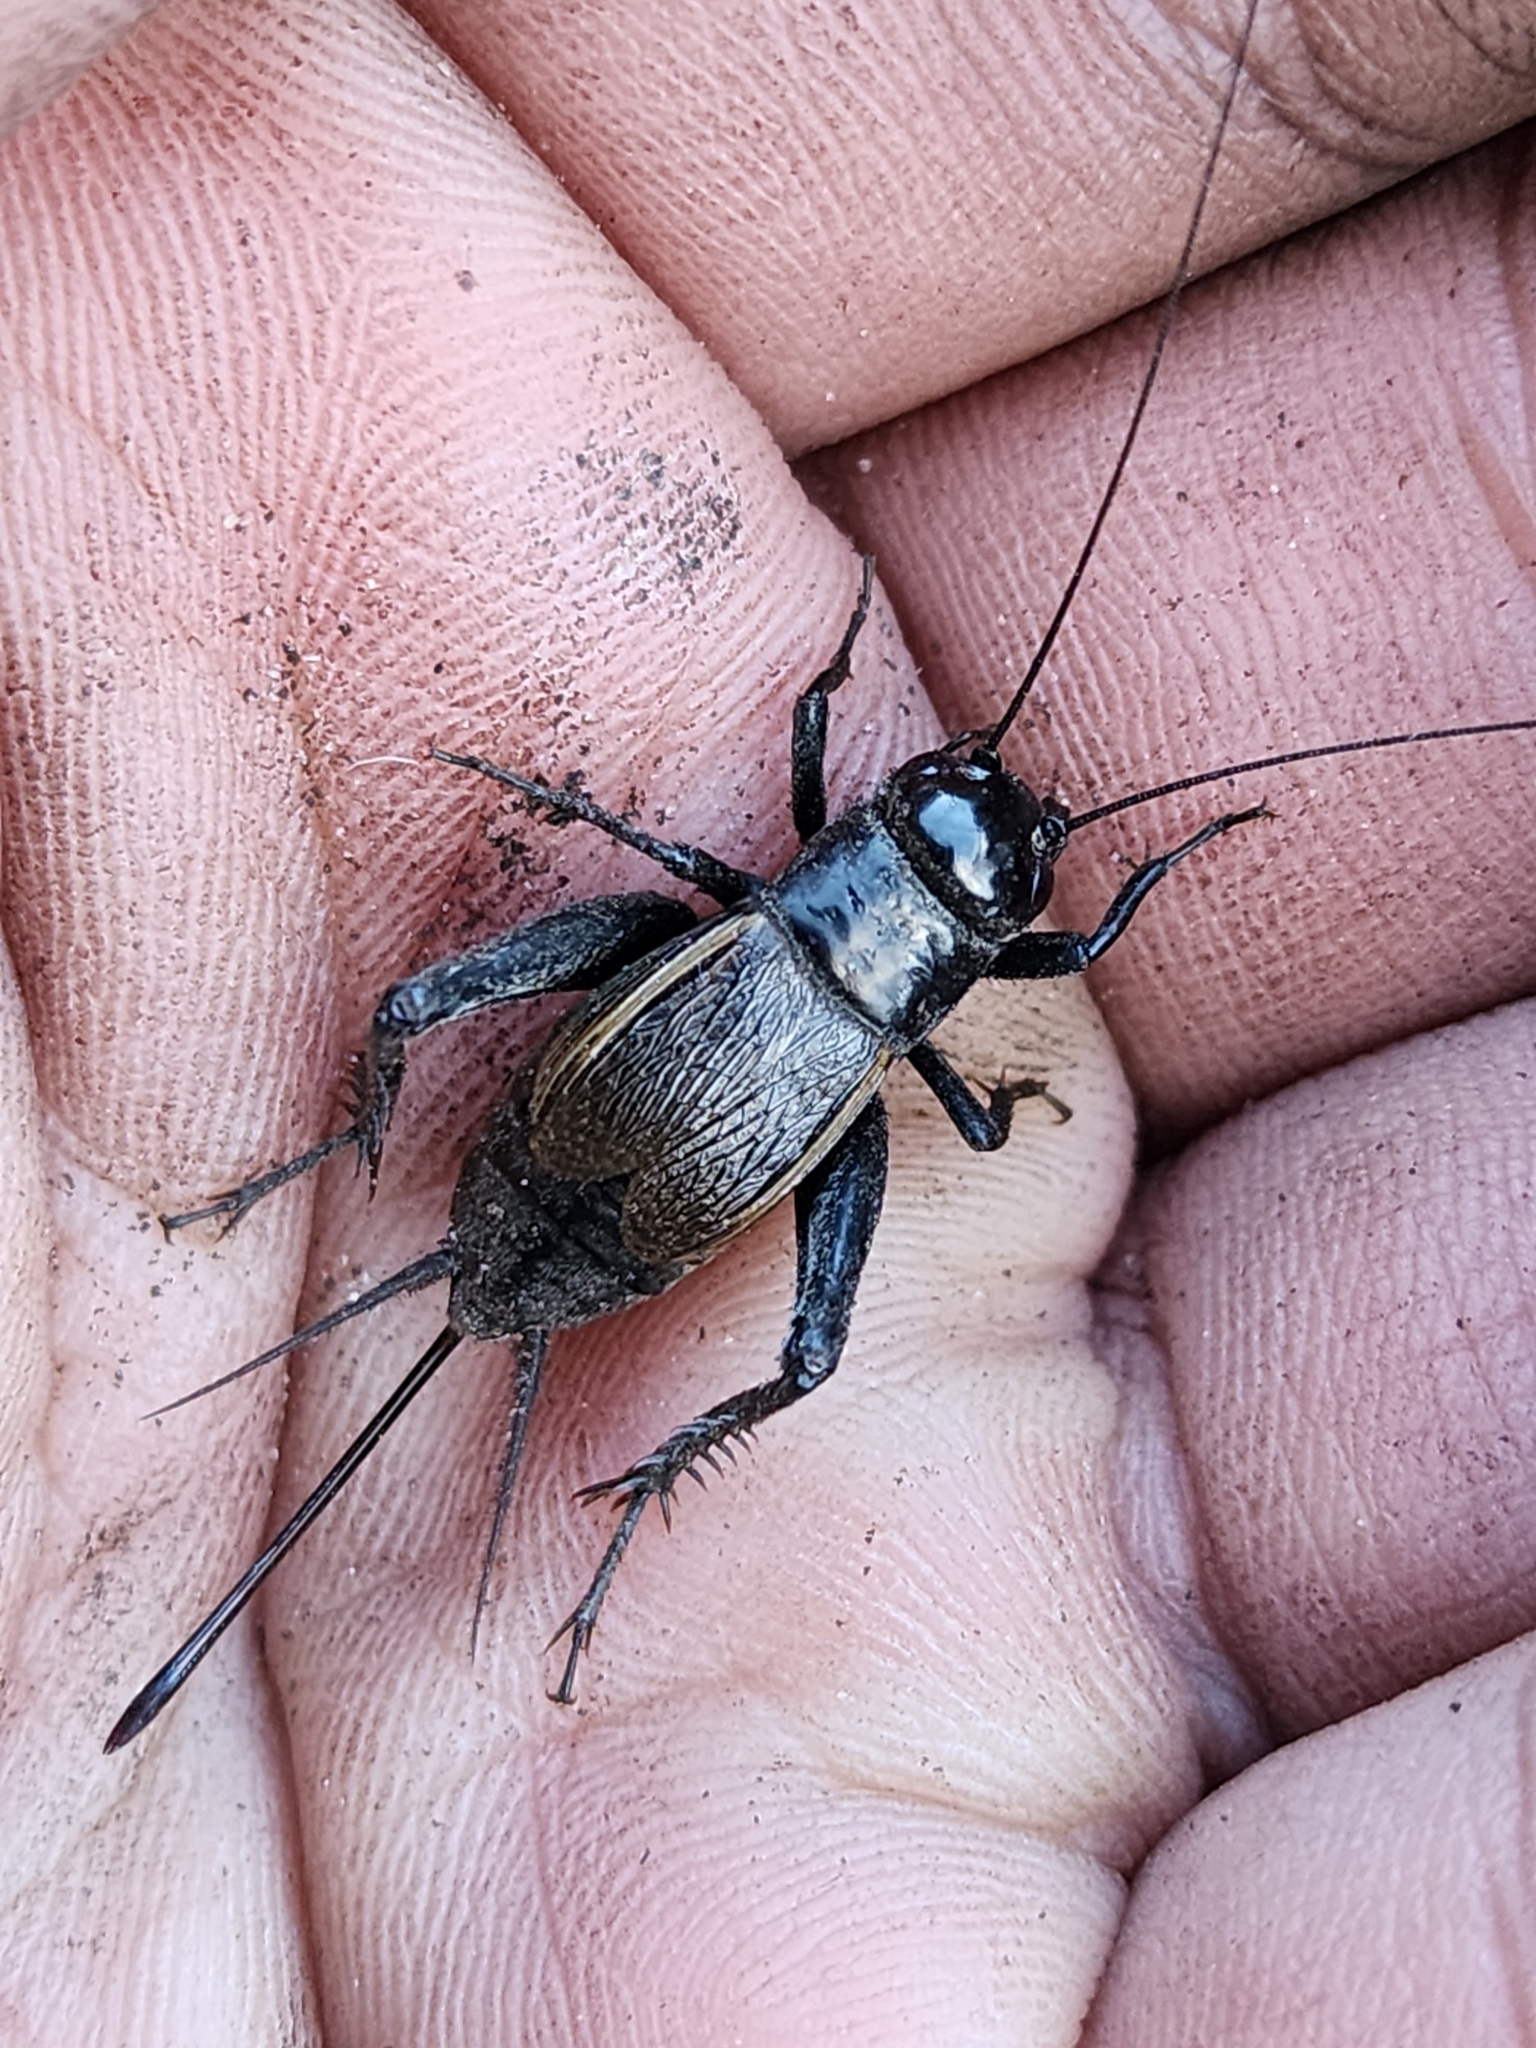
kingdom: Animalia
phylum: Arthropoda
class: Insecta
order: Orthoptera
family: Gryllidae
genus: Gryllus
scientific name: Gryllus pennsylvanicus
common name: Fall field cricket
